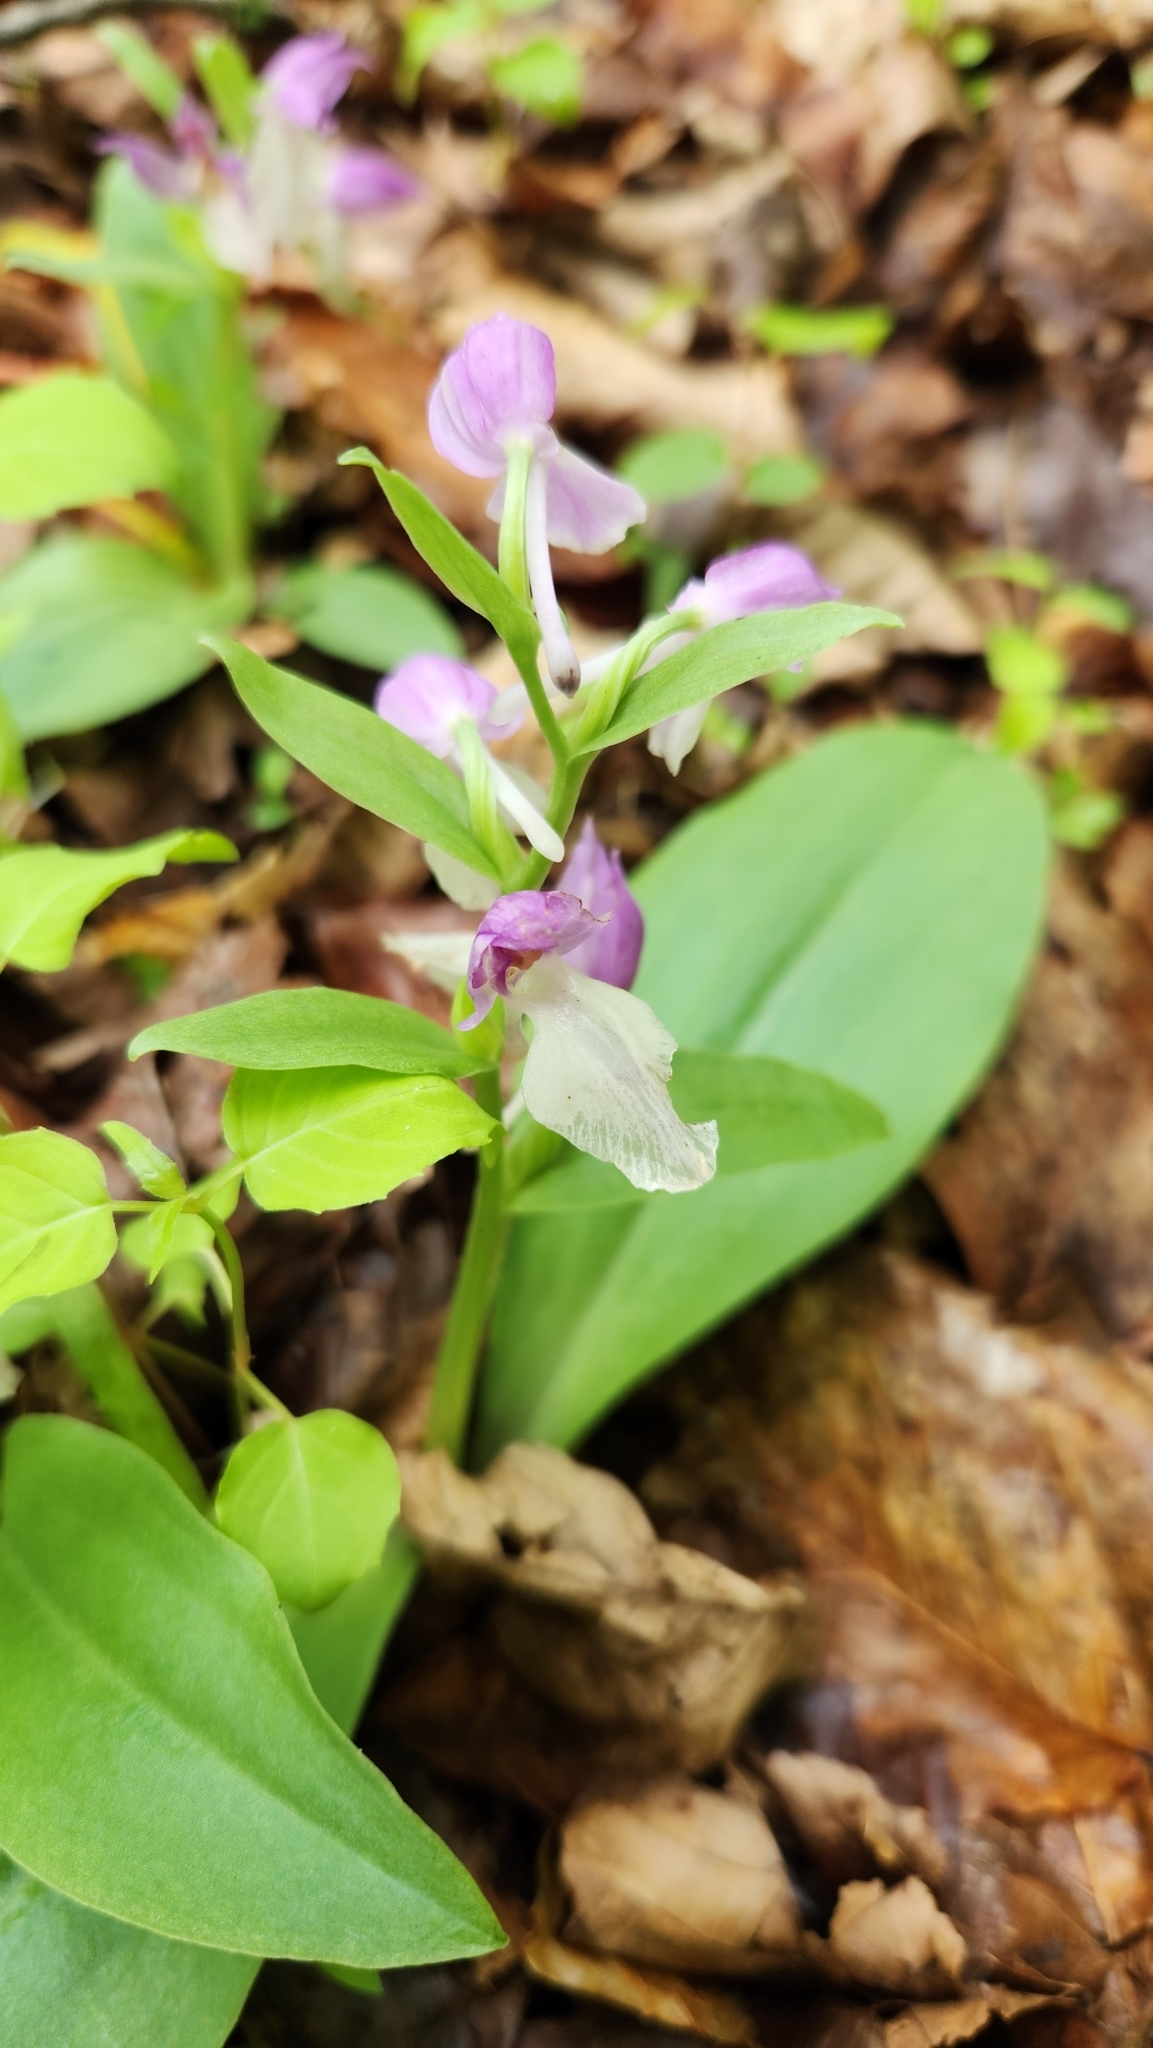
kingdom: Plantae
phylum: Tracheophyta
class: Liliopsida
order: Asparagales
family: Orchidaceae
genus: Galearis
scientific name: Galearis spectabilis
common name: Purple-hooded orchis
